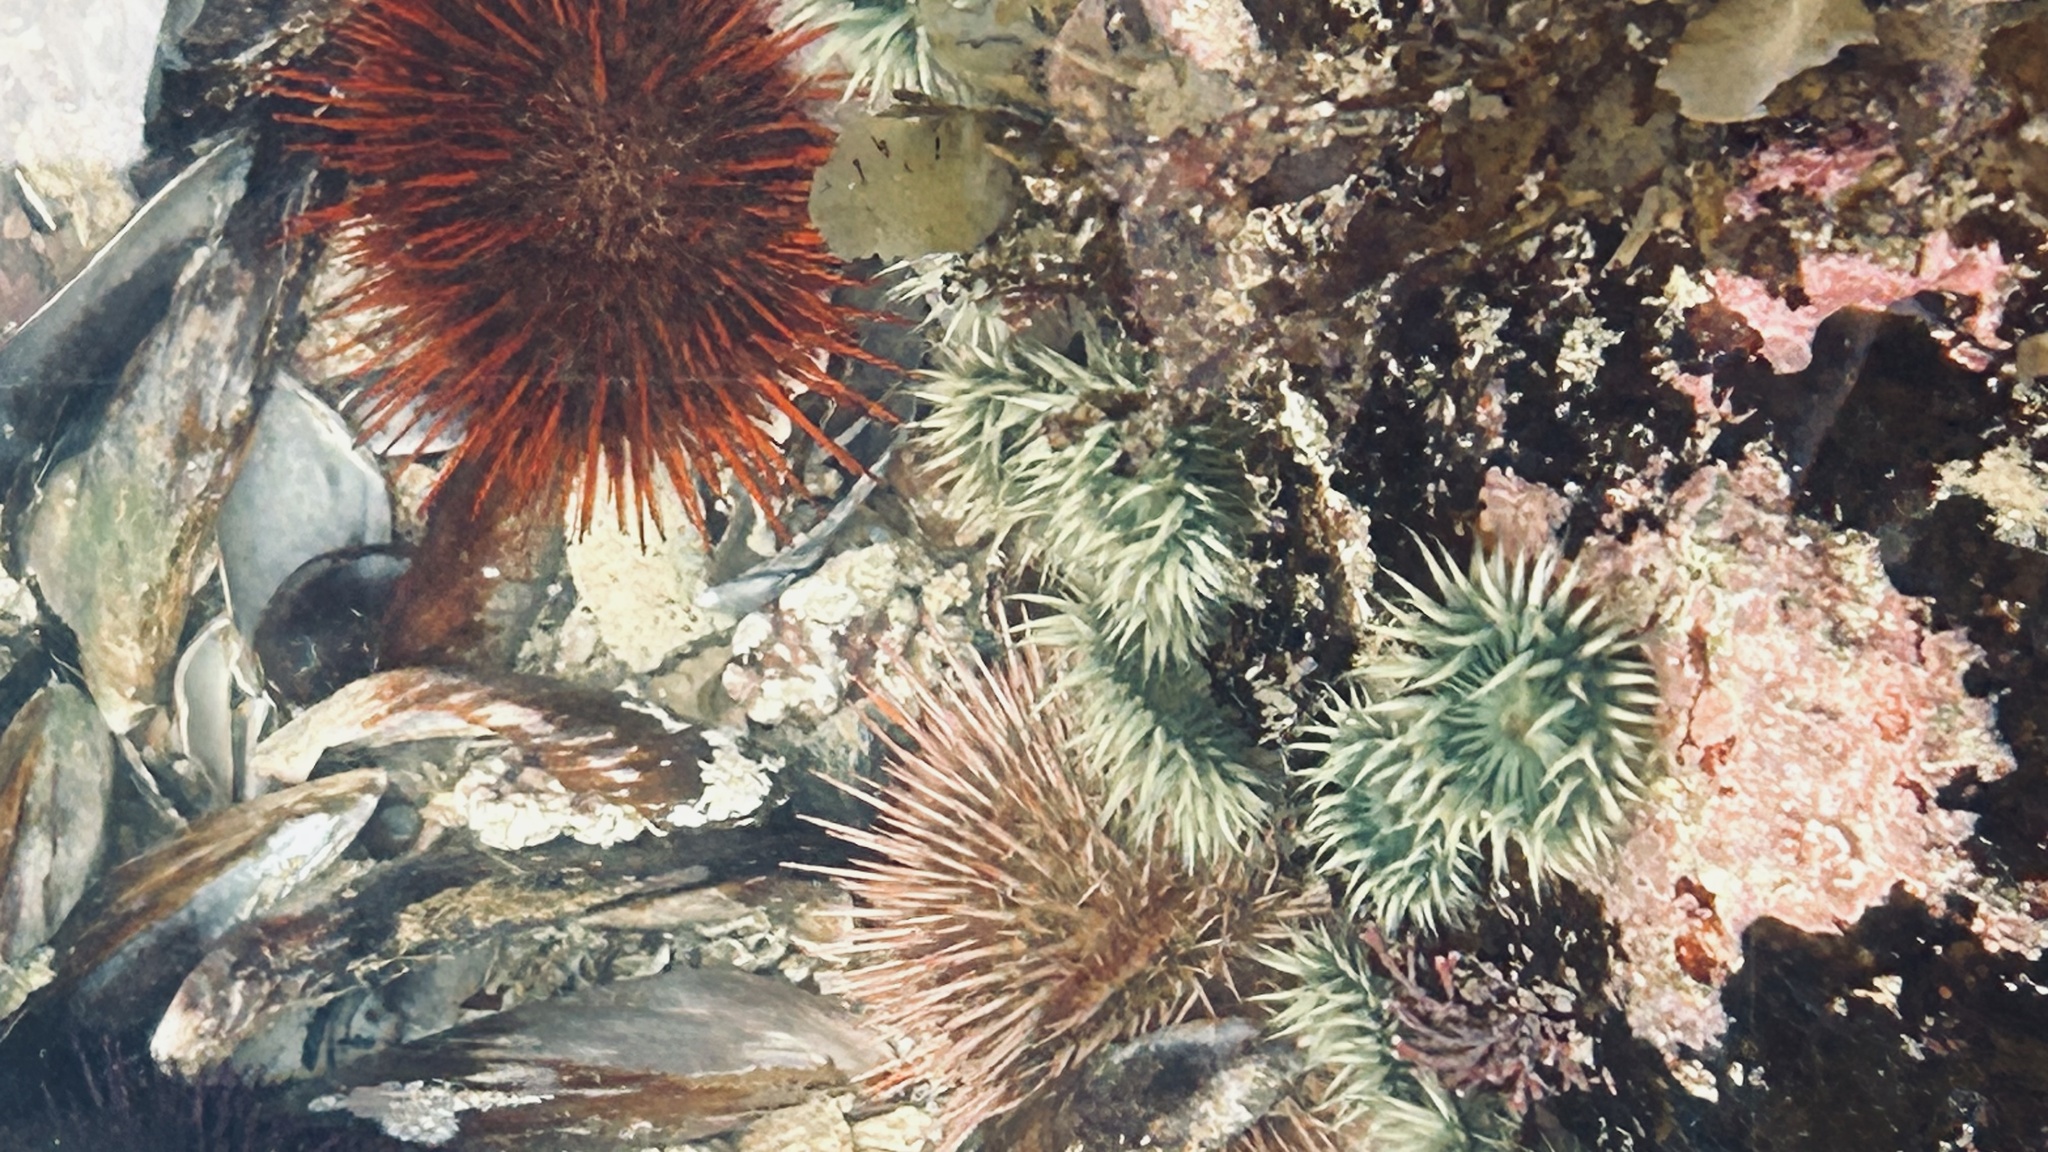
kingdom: Animalia
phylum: Echinodermata
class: Echinoidea
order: Camarodonta
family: Parechinidae
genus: Parechinus
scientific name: Parechinus angulosus
